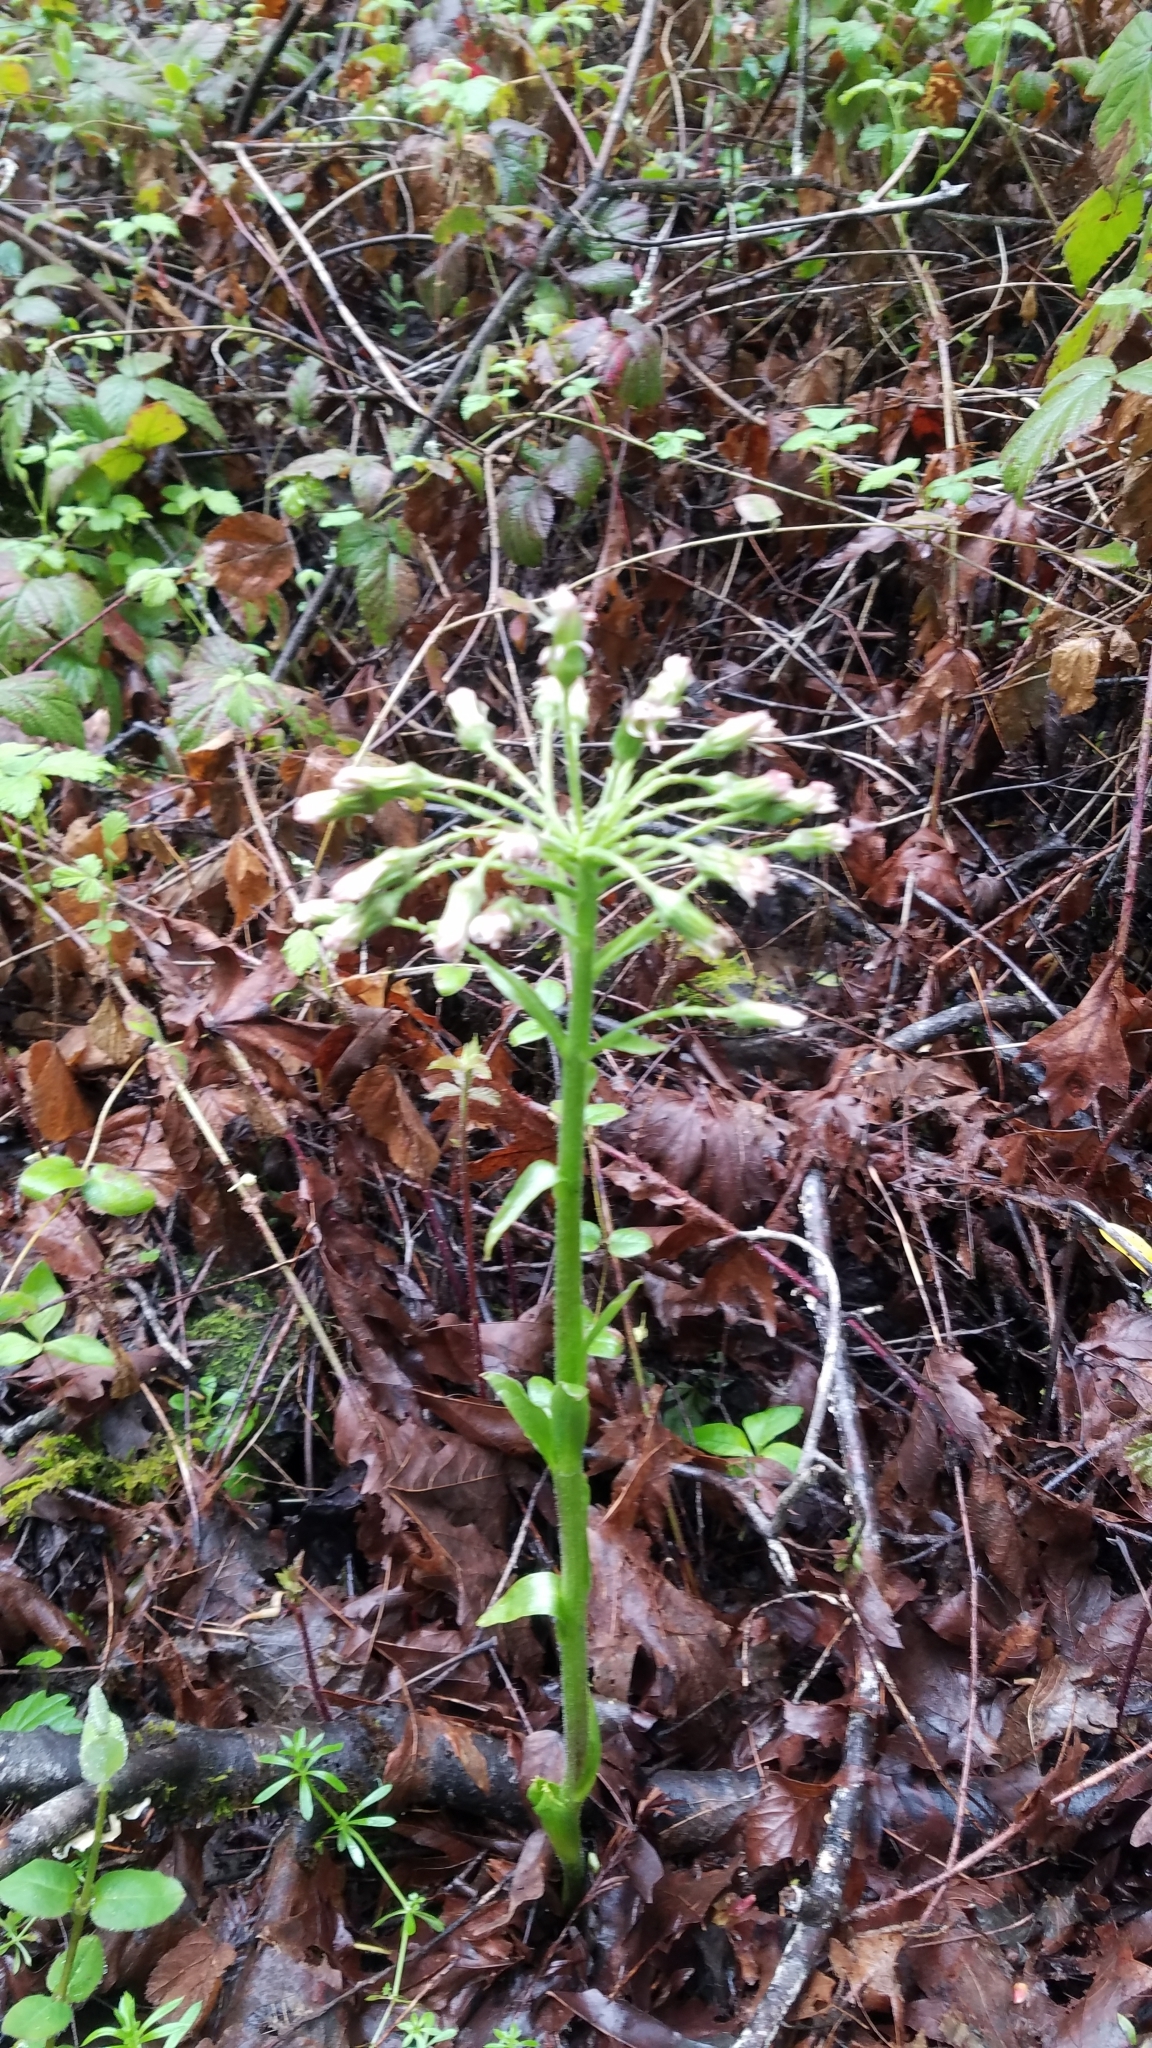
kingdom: Plantae
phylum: Tracheophyta
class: Magnoliopsida
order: Asterales
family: Asteraceae
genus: Petasites
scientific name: Petasites frigidus
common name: Arctic butterbur
